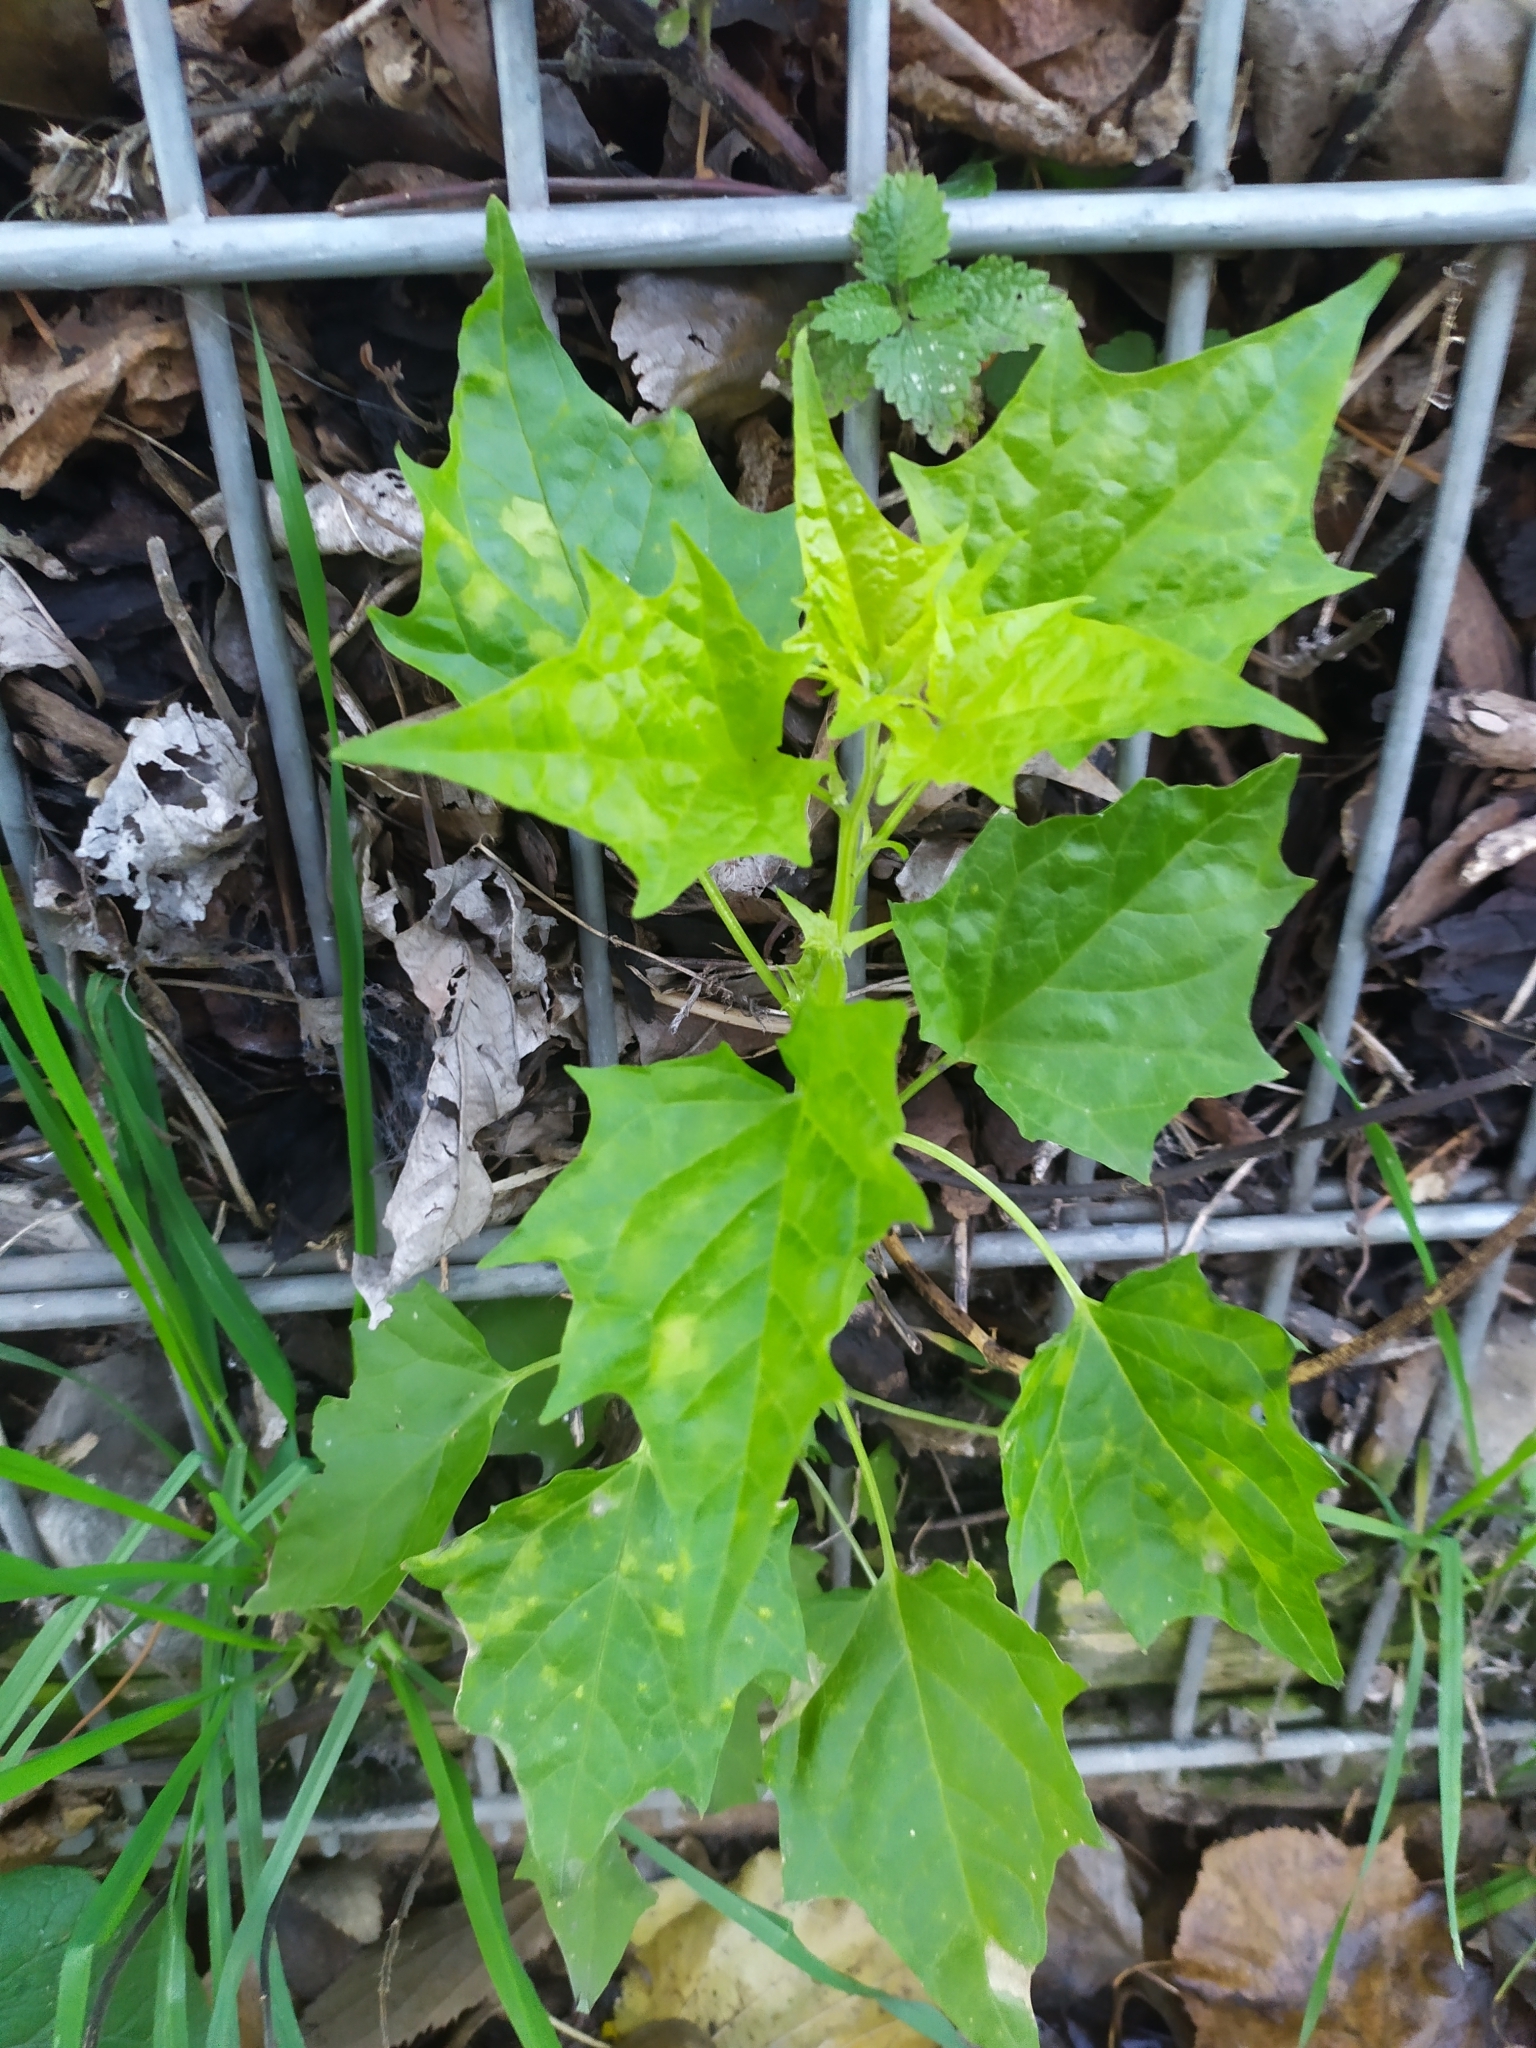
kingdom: Plantae
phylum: Tracheophyta
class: Magnoliopsida
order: Caryophyllales
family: Amaranthaceae
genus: Chenopodiastrum
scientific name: Chenopodiastrum hybridum
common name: Mapleleaf goosefoot
